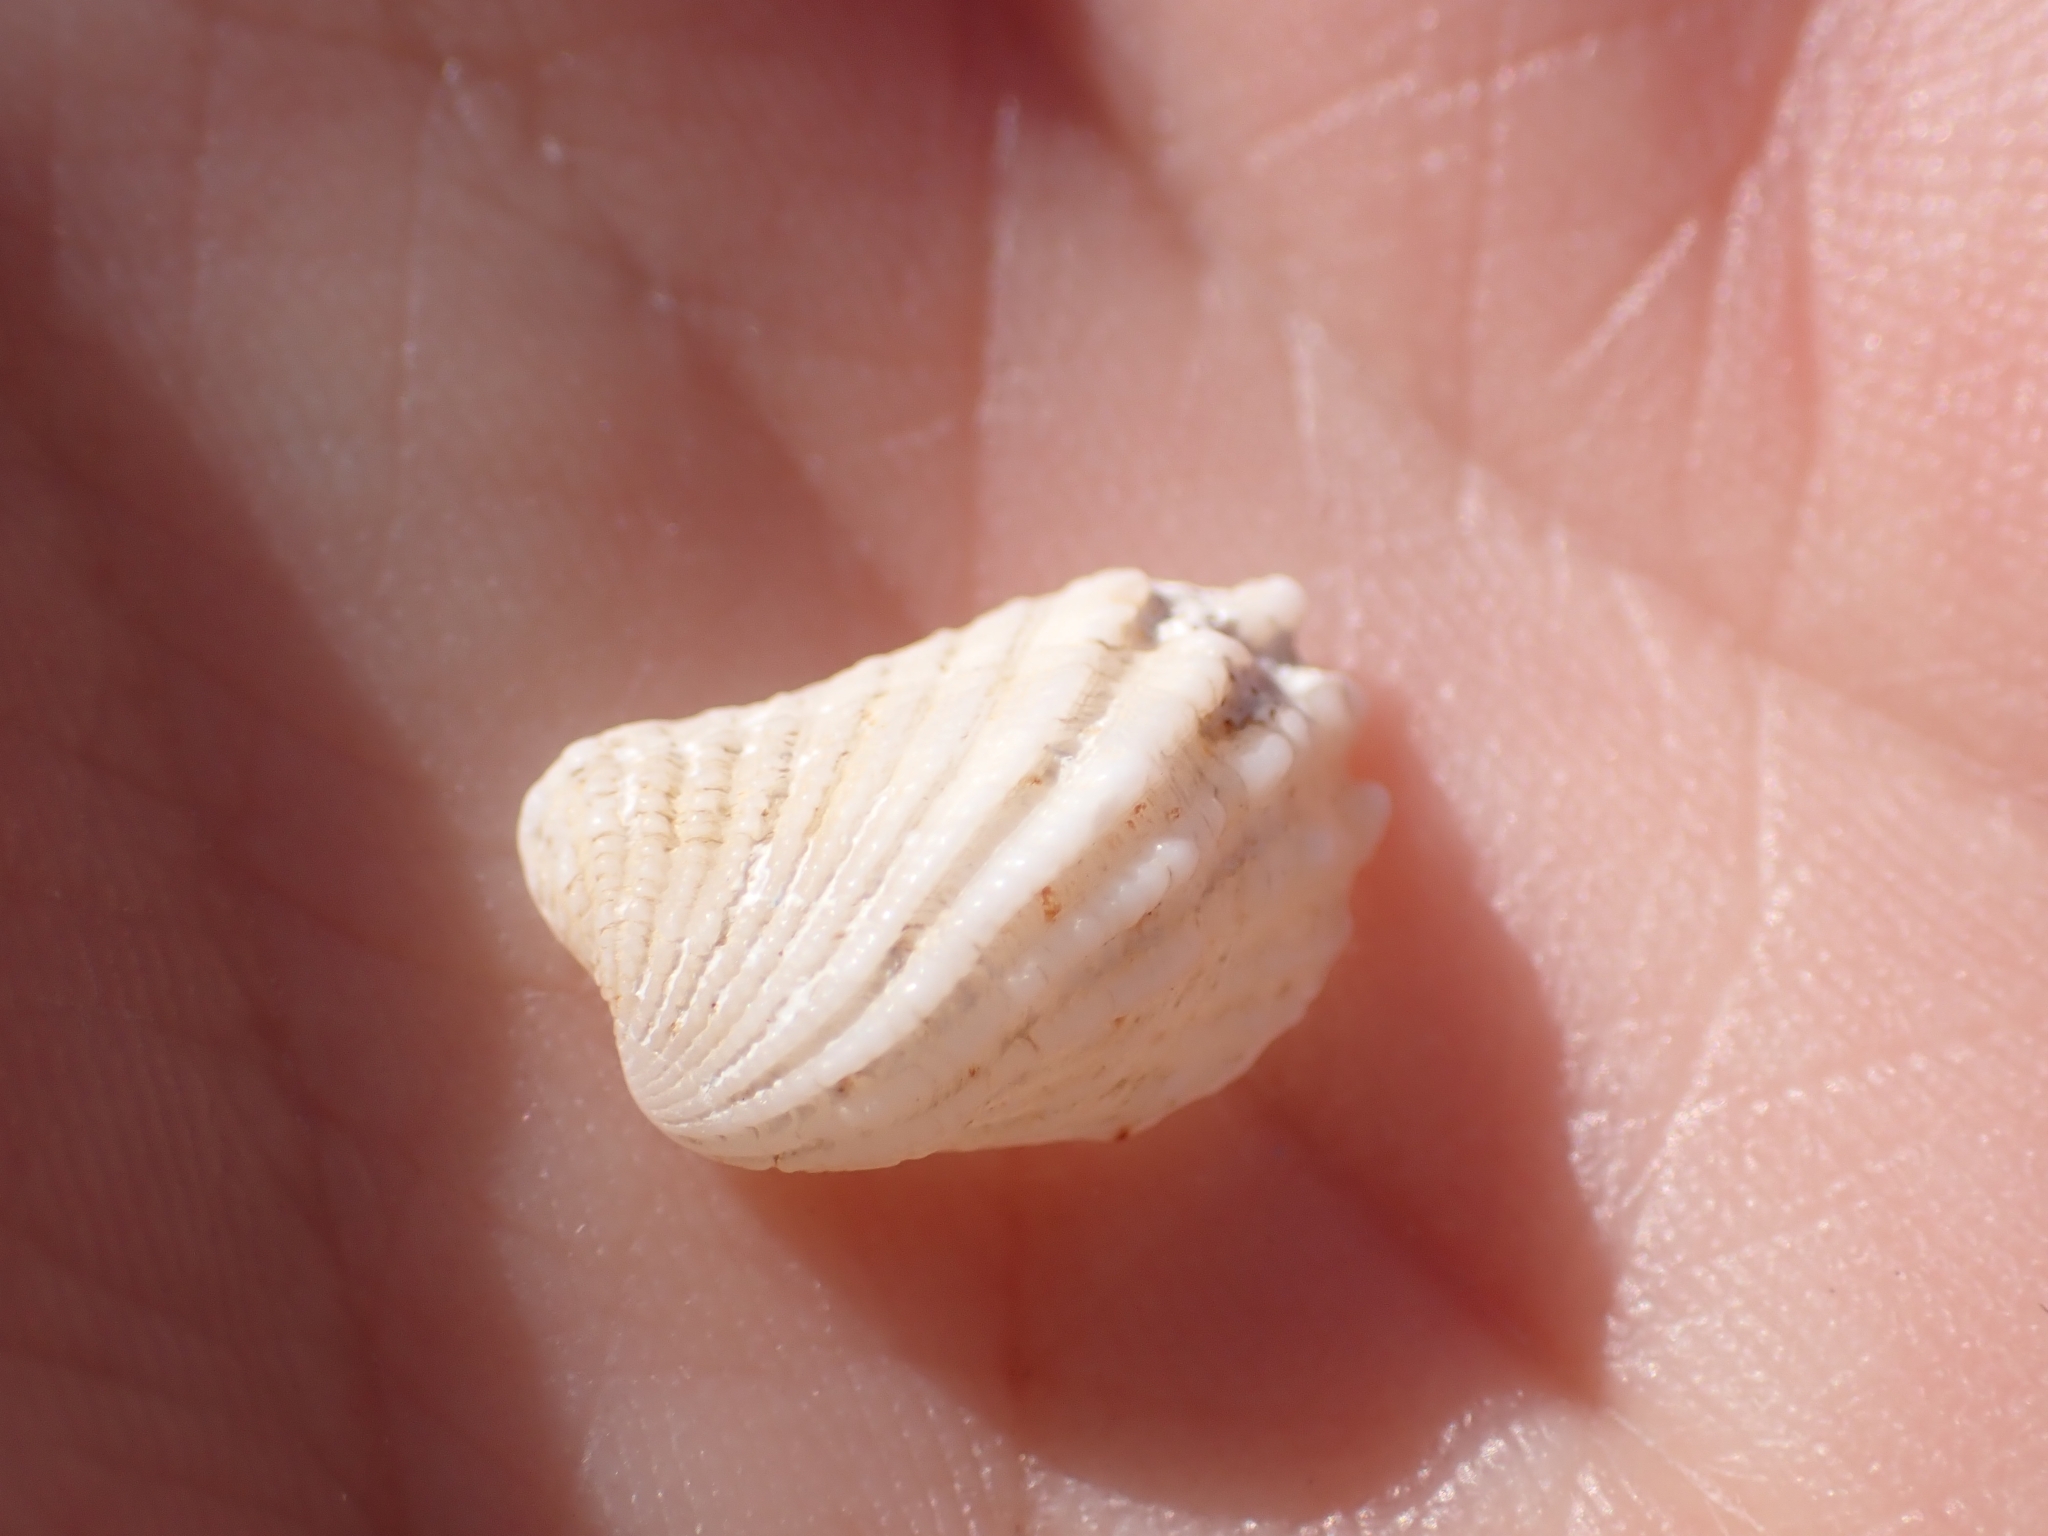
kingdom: Animalia
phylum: Mollusca
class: Bivalvia
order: Carditida
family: Carditidae
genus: Cardita
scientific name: Cardita calyculata
